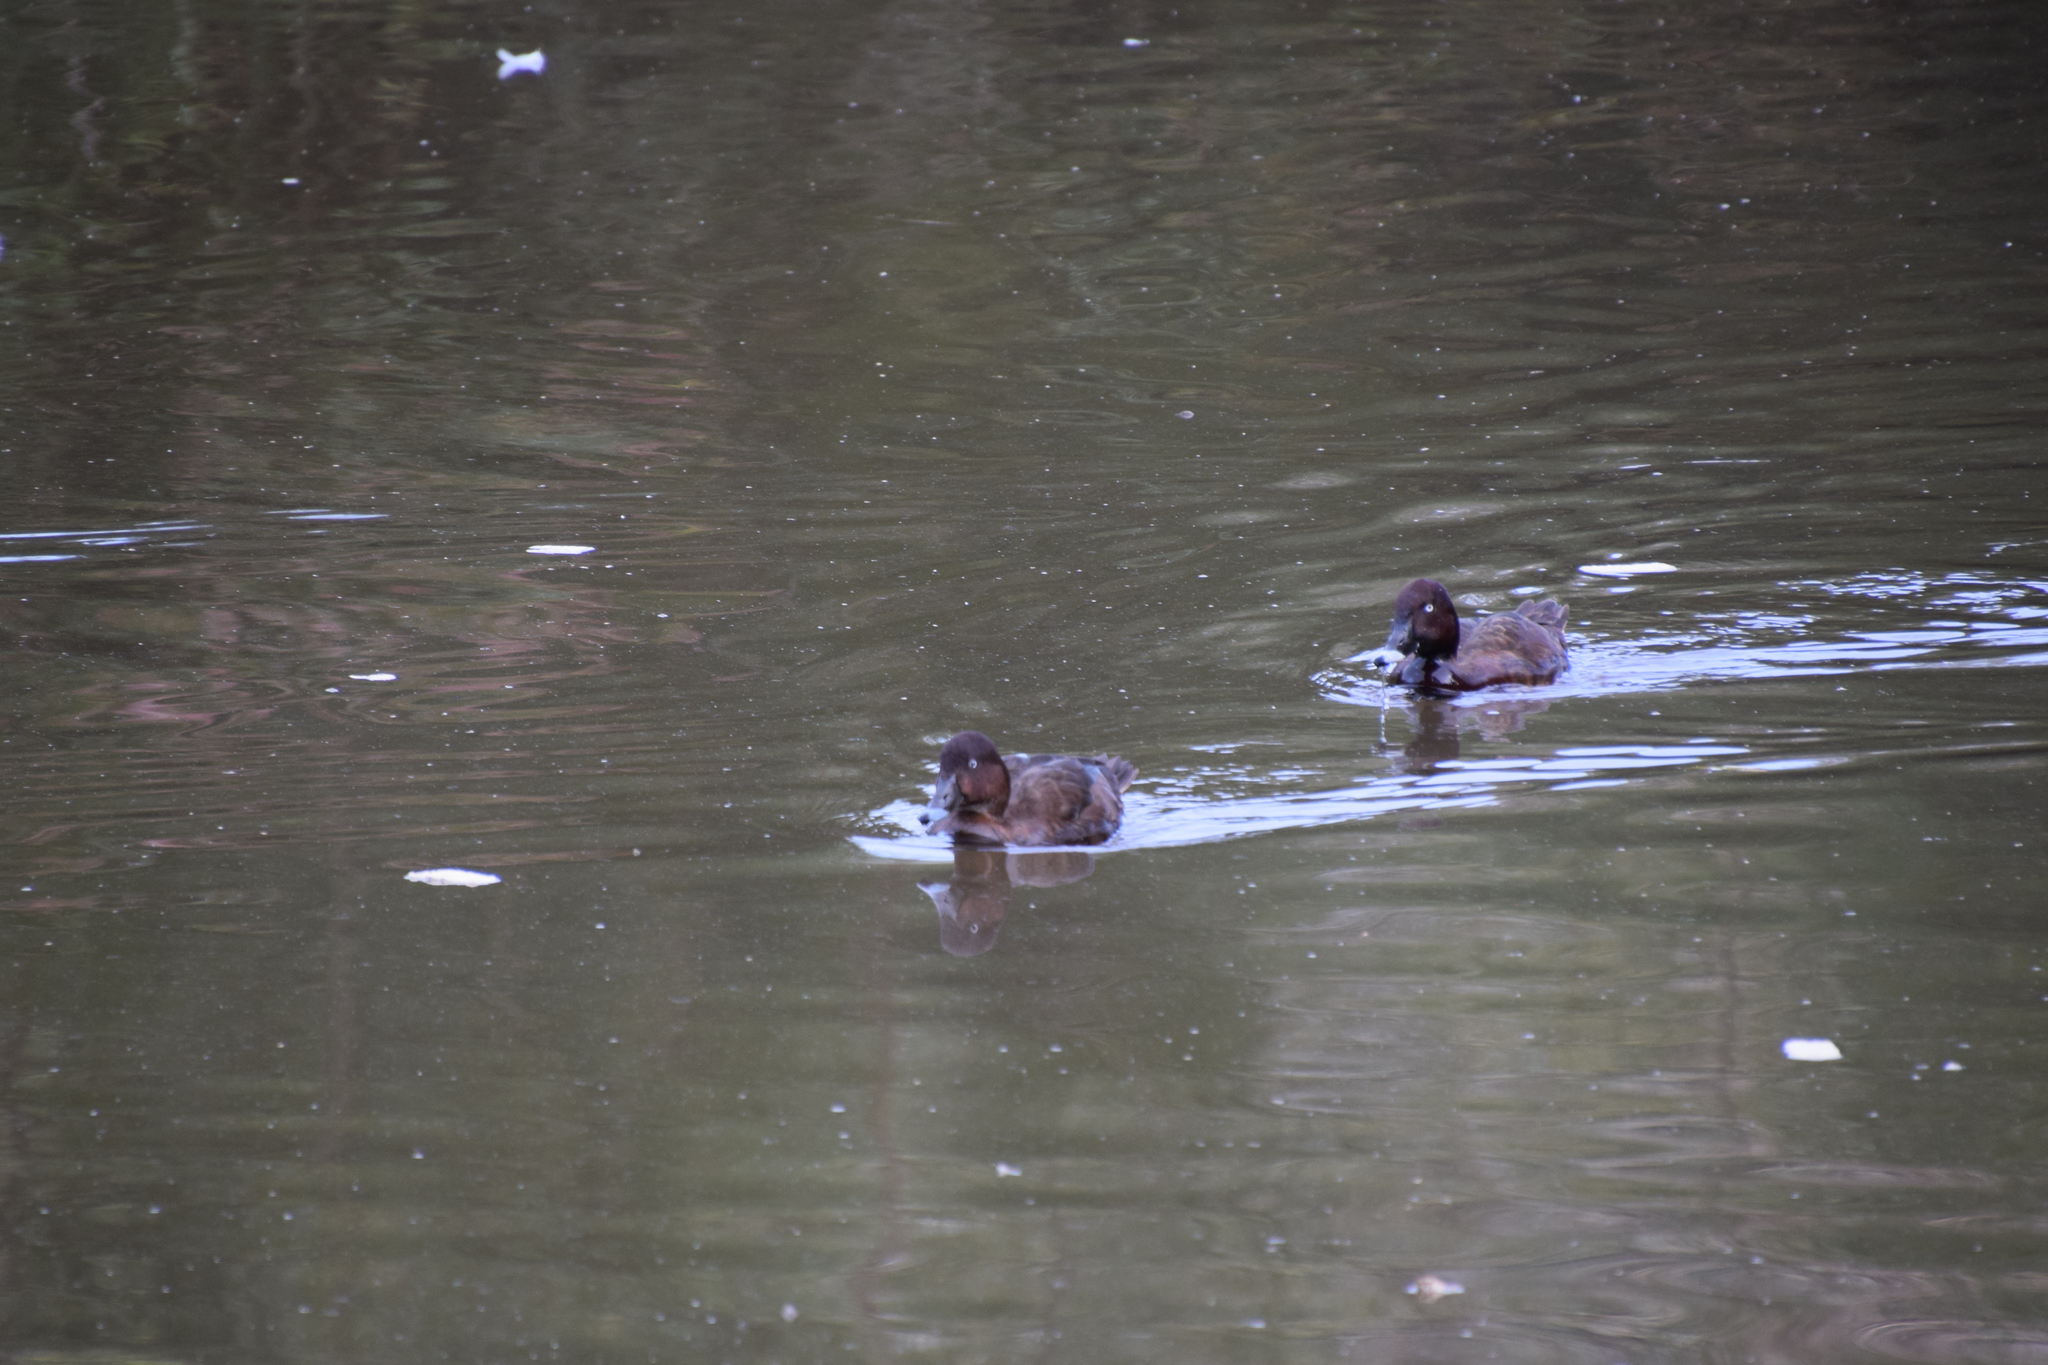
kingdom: Animalia
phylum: Chordata
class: Aves
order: Anseriformes
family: Anatidae
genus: Aythya
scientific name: Aythya australis
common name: Hardhead
